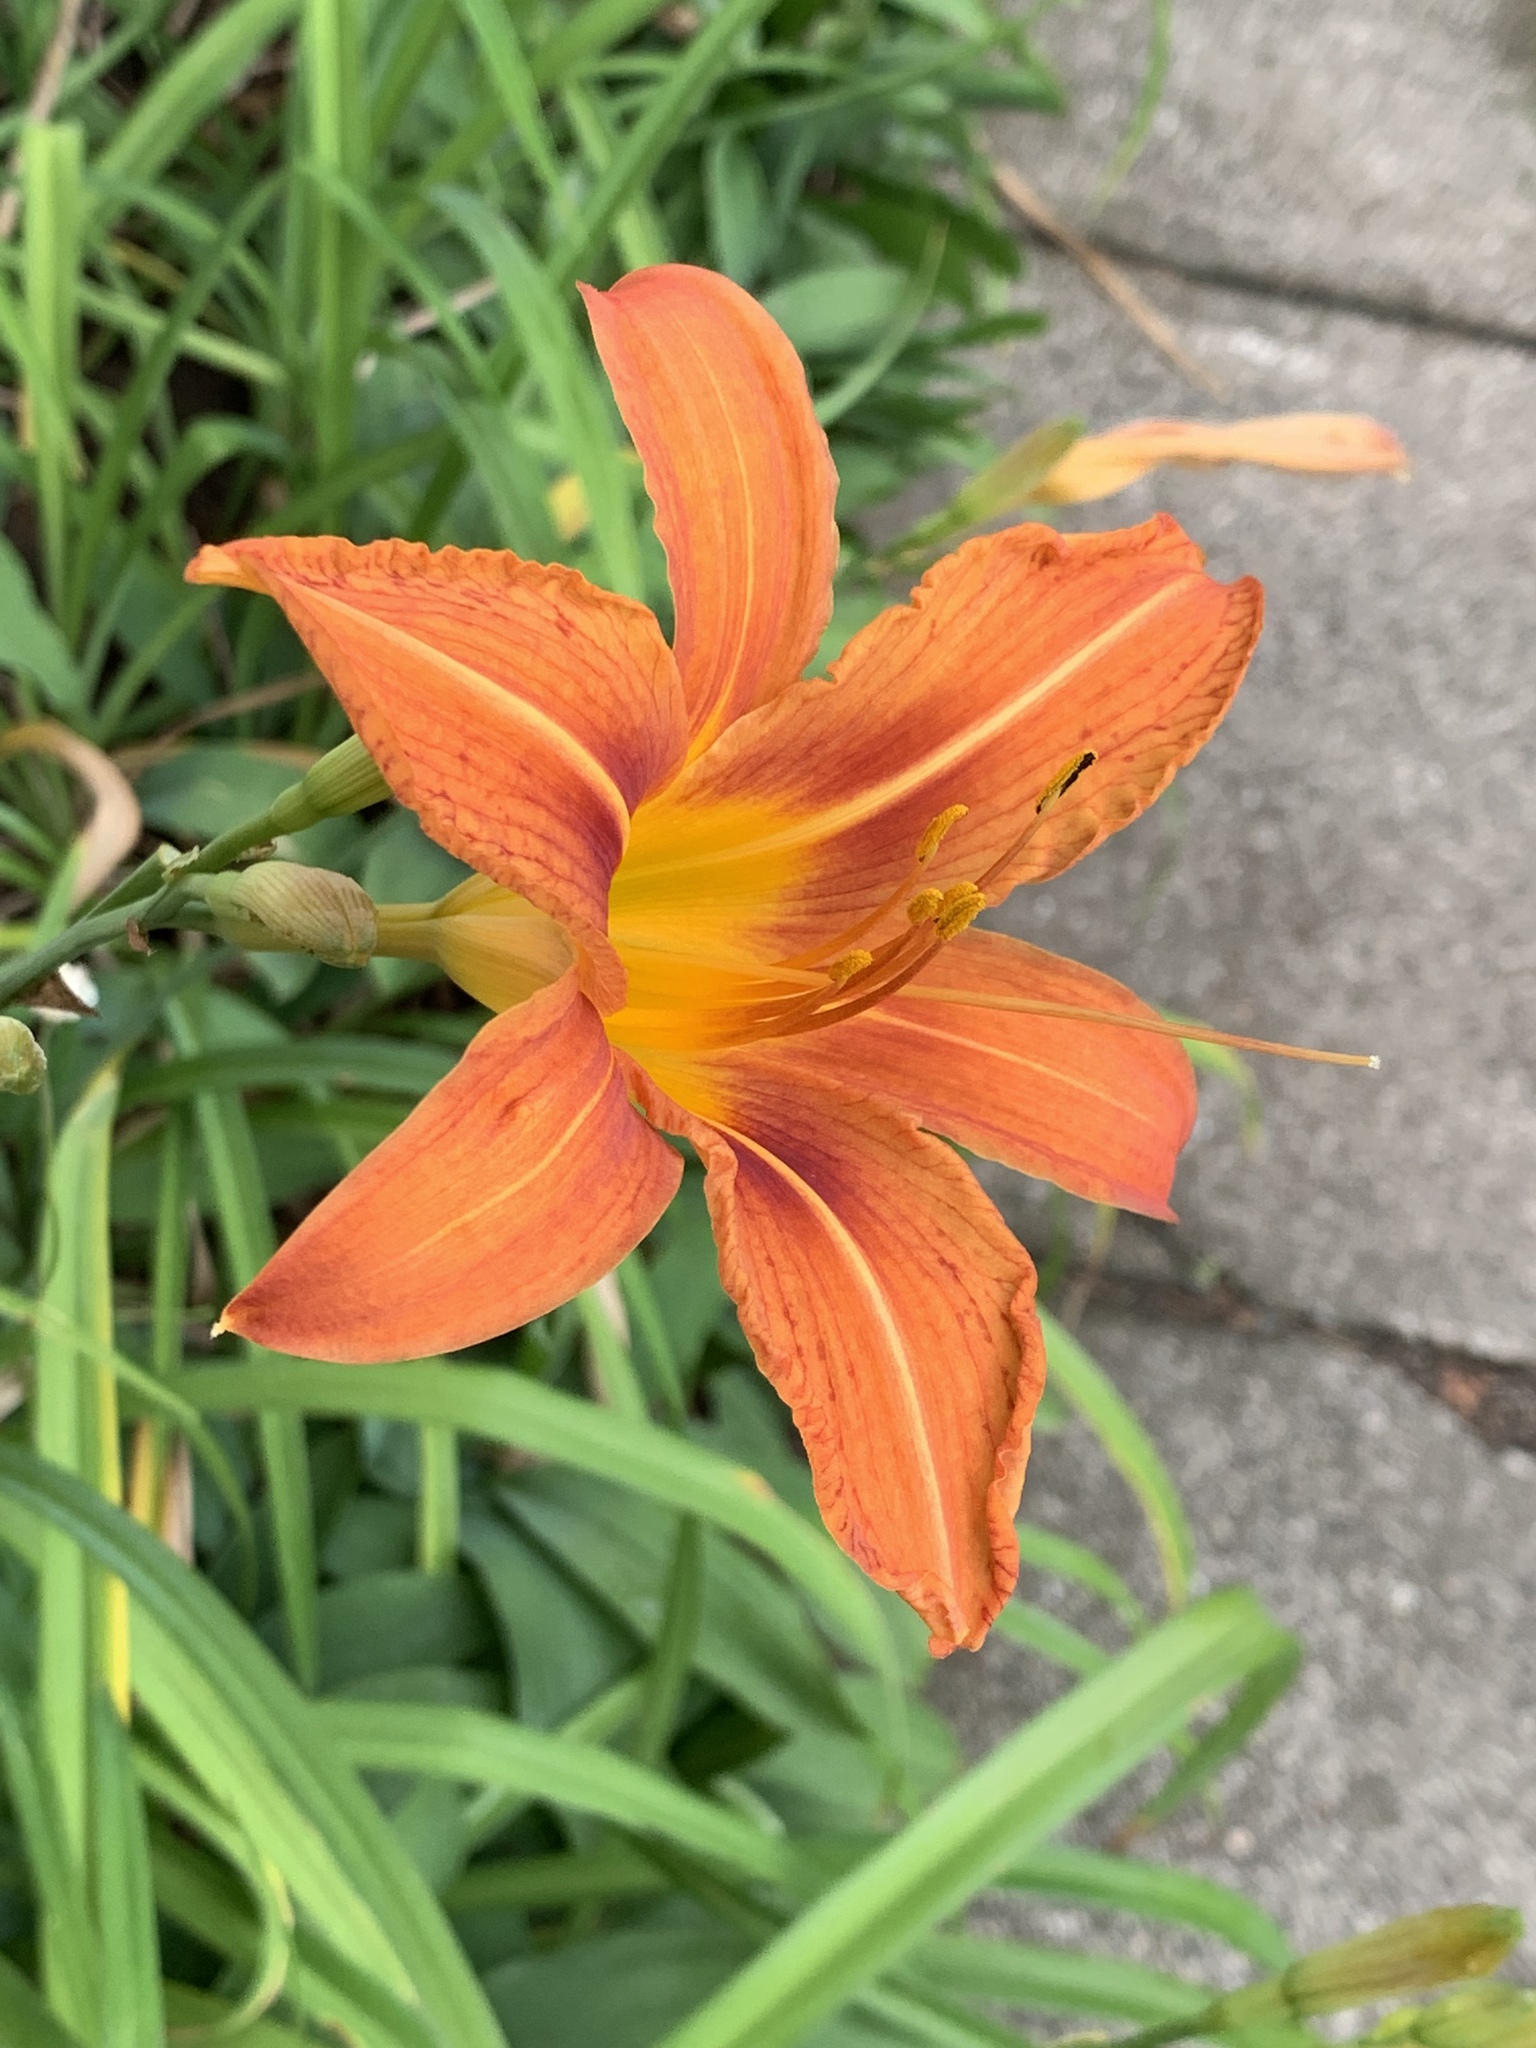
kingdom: Plantae
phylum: Tracheophyta
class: Liliopsida
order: Asparagales
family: Asphodelaceae
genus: Hemerocallis
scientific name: Hemerocallis fulva
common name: Orange day-lily
